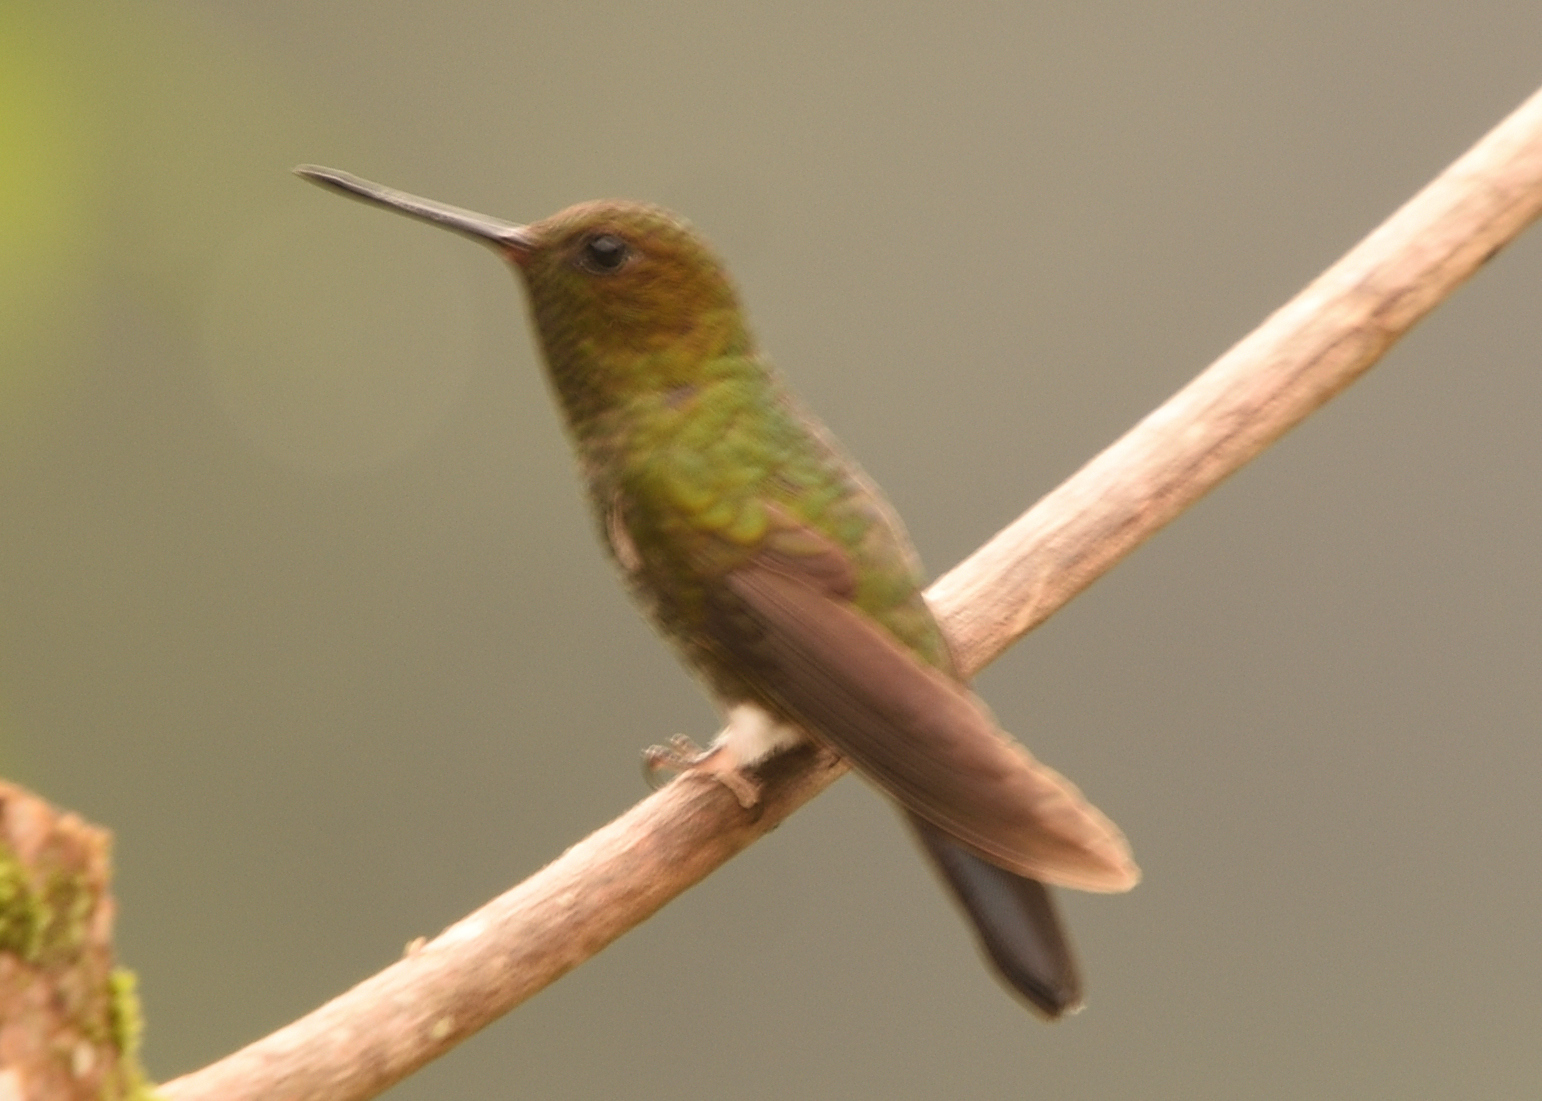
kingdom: Animalia
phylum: Chordata
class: Aves
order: Apodiformes
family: Trochilidae
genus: Coeligena
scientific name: Coeligena coeligena
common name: Bronzy inca
